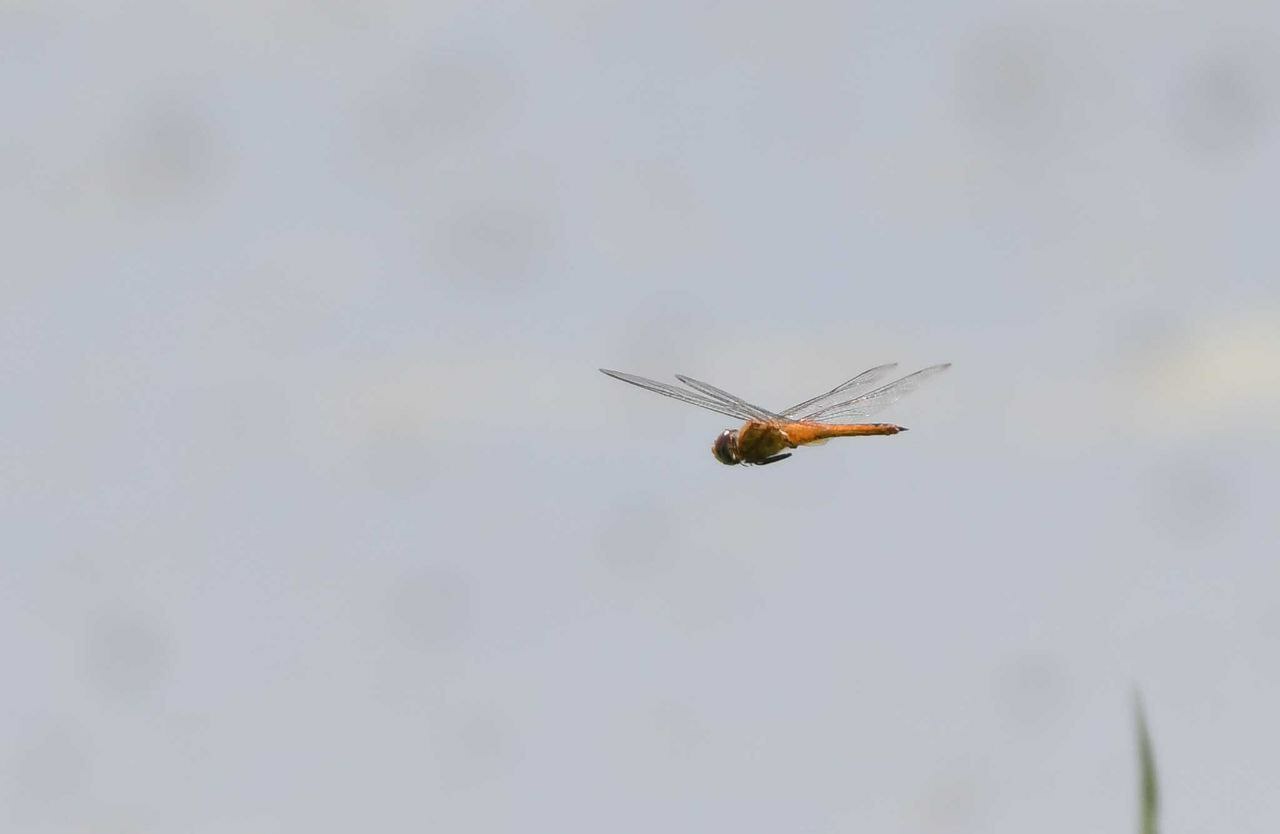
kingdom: Animalia
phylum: Arthropoda
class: Insecta
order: Odonata
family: Libellulidae
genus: Pantala
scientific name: Pantala flavescens
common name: Wandering glider
